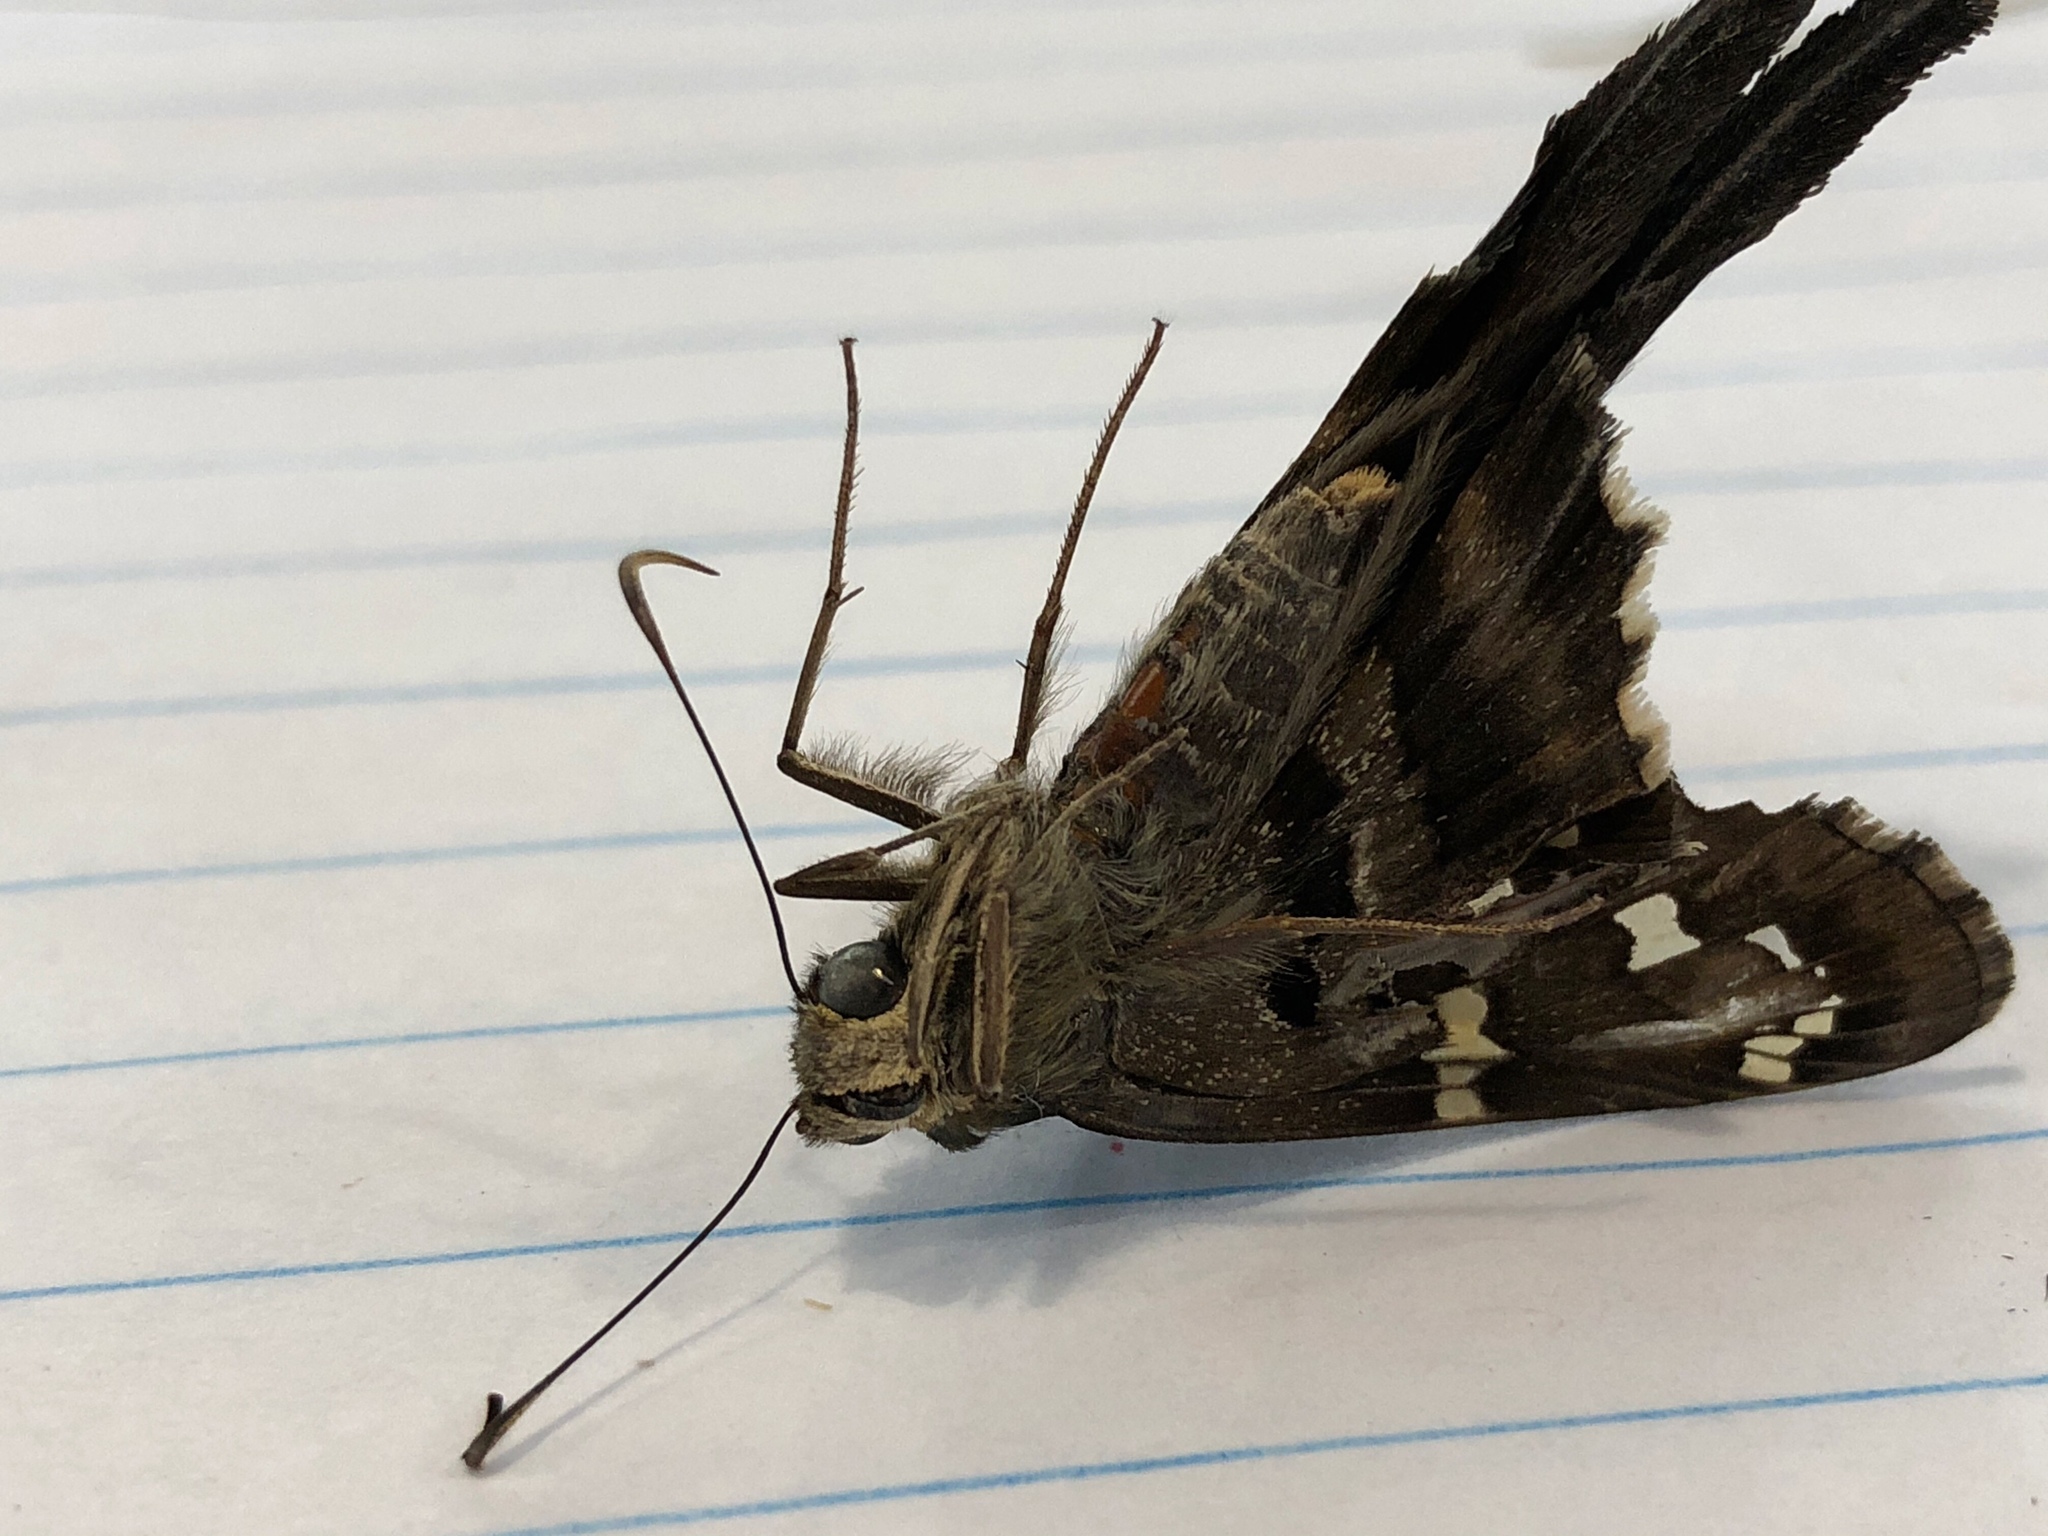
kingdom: Animalia
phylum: Arthropoda
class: Insecta
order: Lepidoptera
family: Hesperiidae
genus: Urbanus
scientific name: Urbanus proteus
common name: Long-tailed skipper
